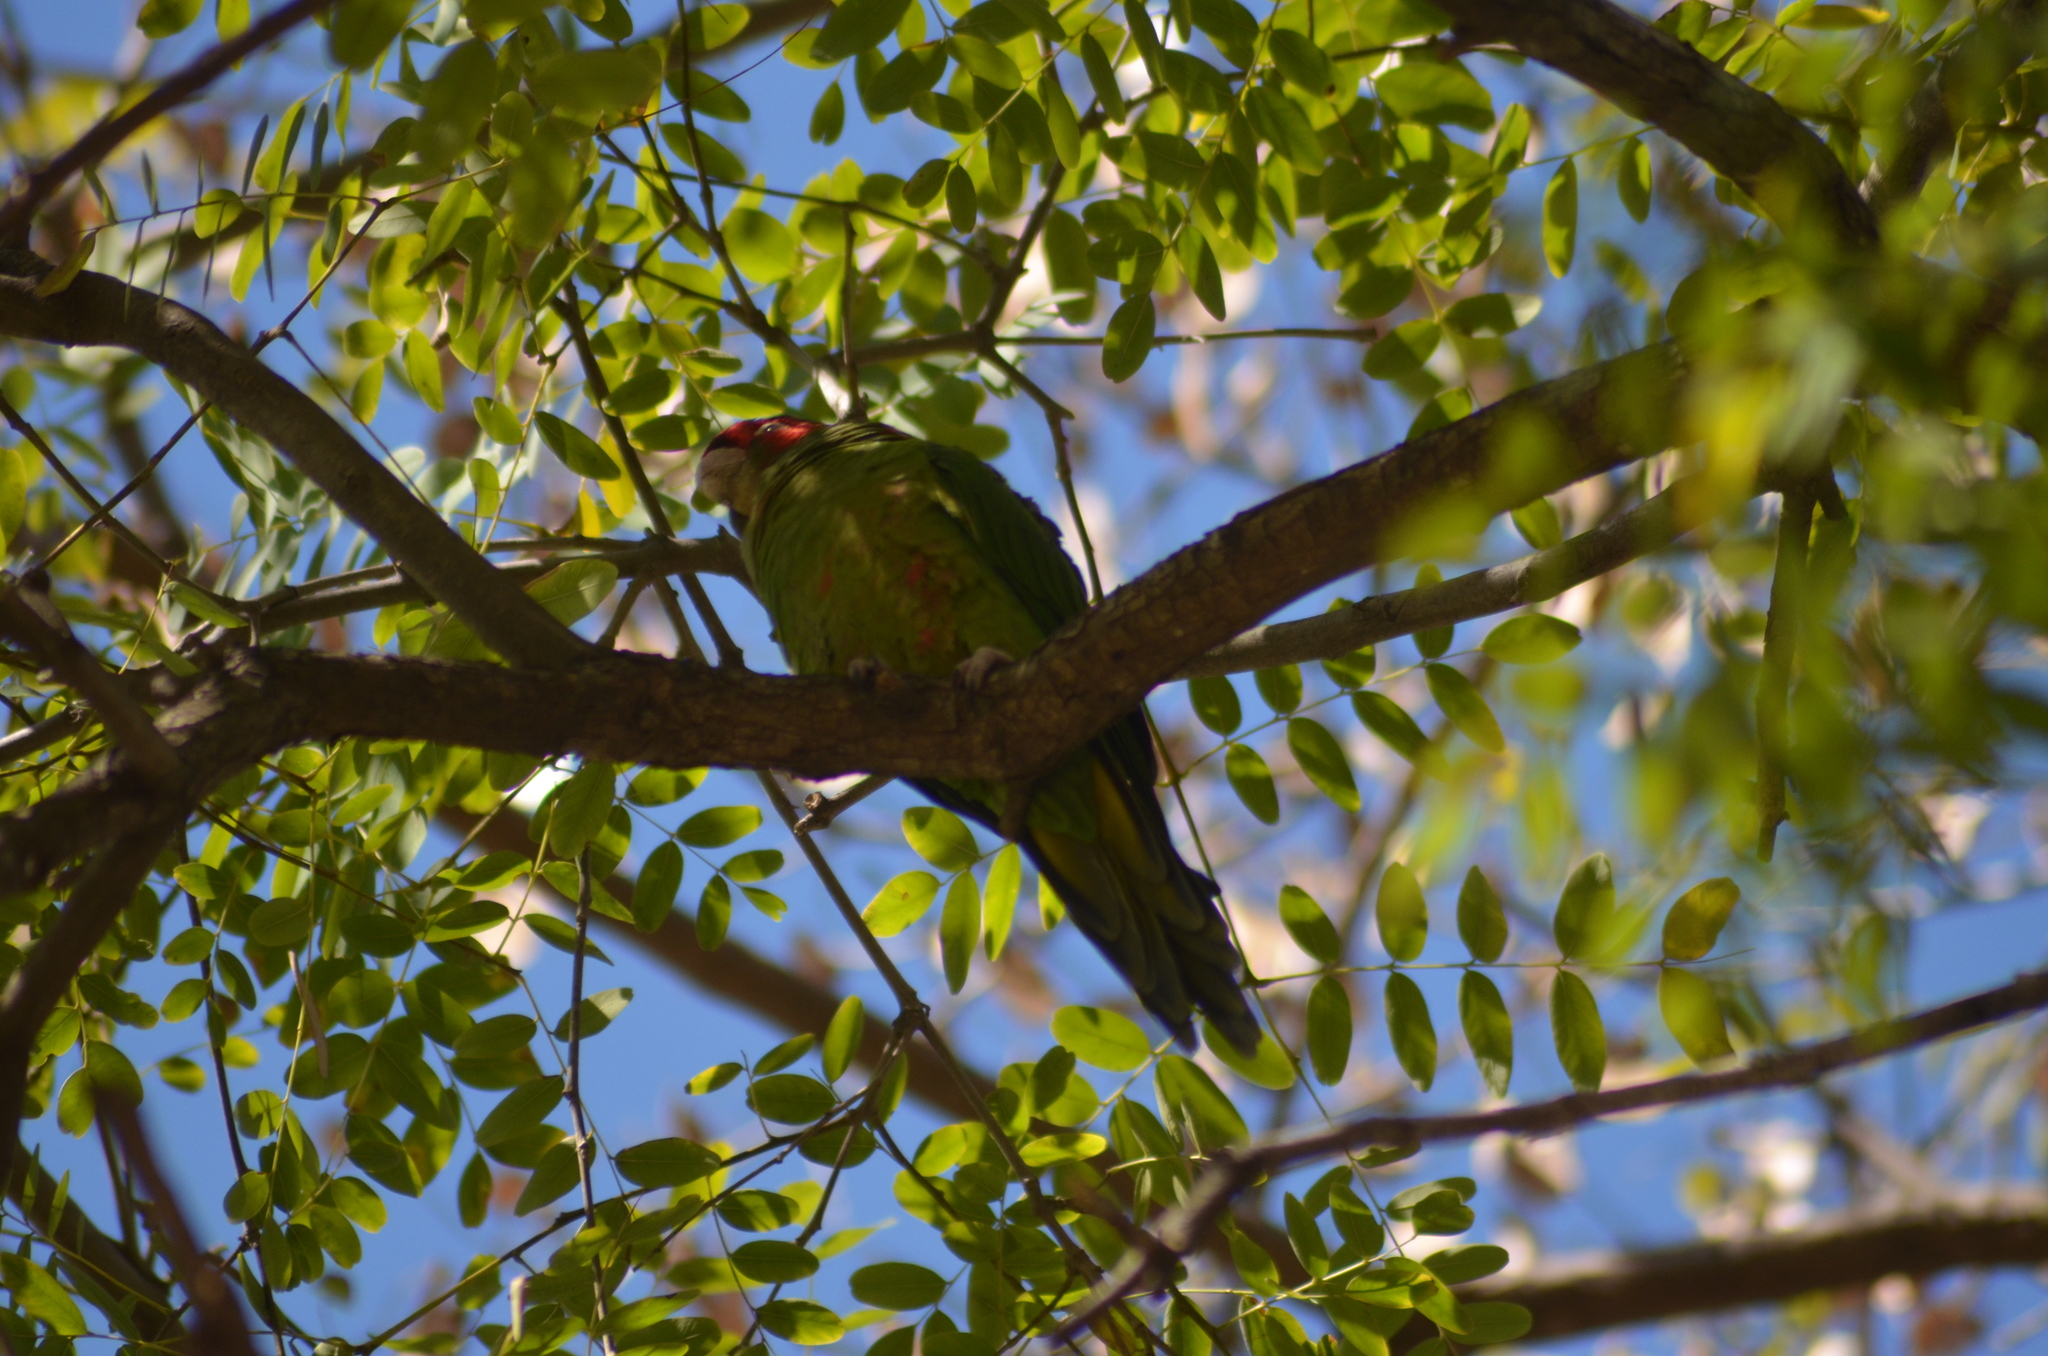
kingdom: Animalia
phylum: Chordata
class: Aves
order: Psittaciformes
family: Psittacidae
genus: Aratinga
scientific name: Aratinga mitrata
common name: Mitred parakeet
